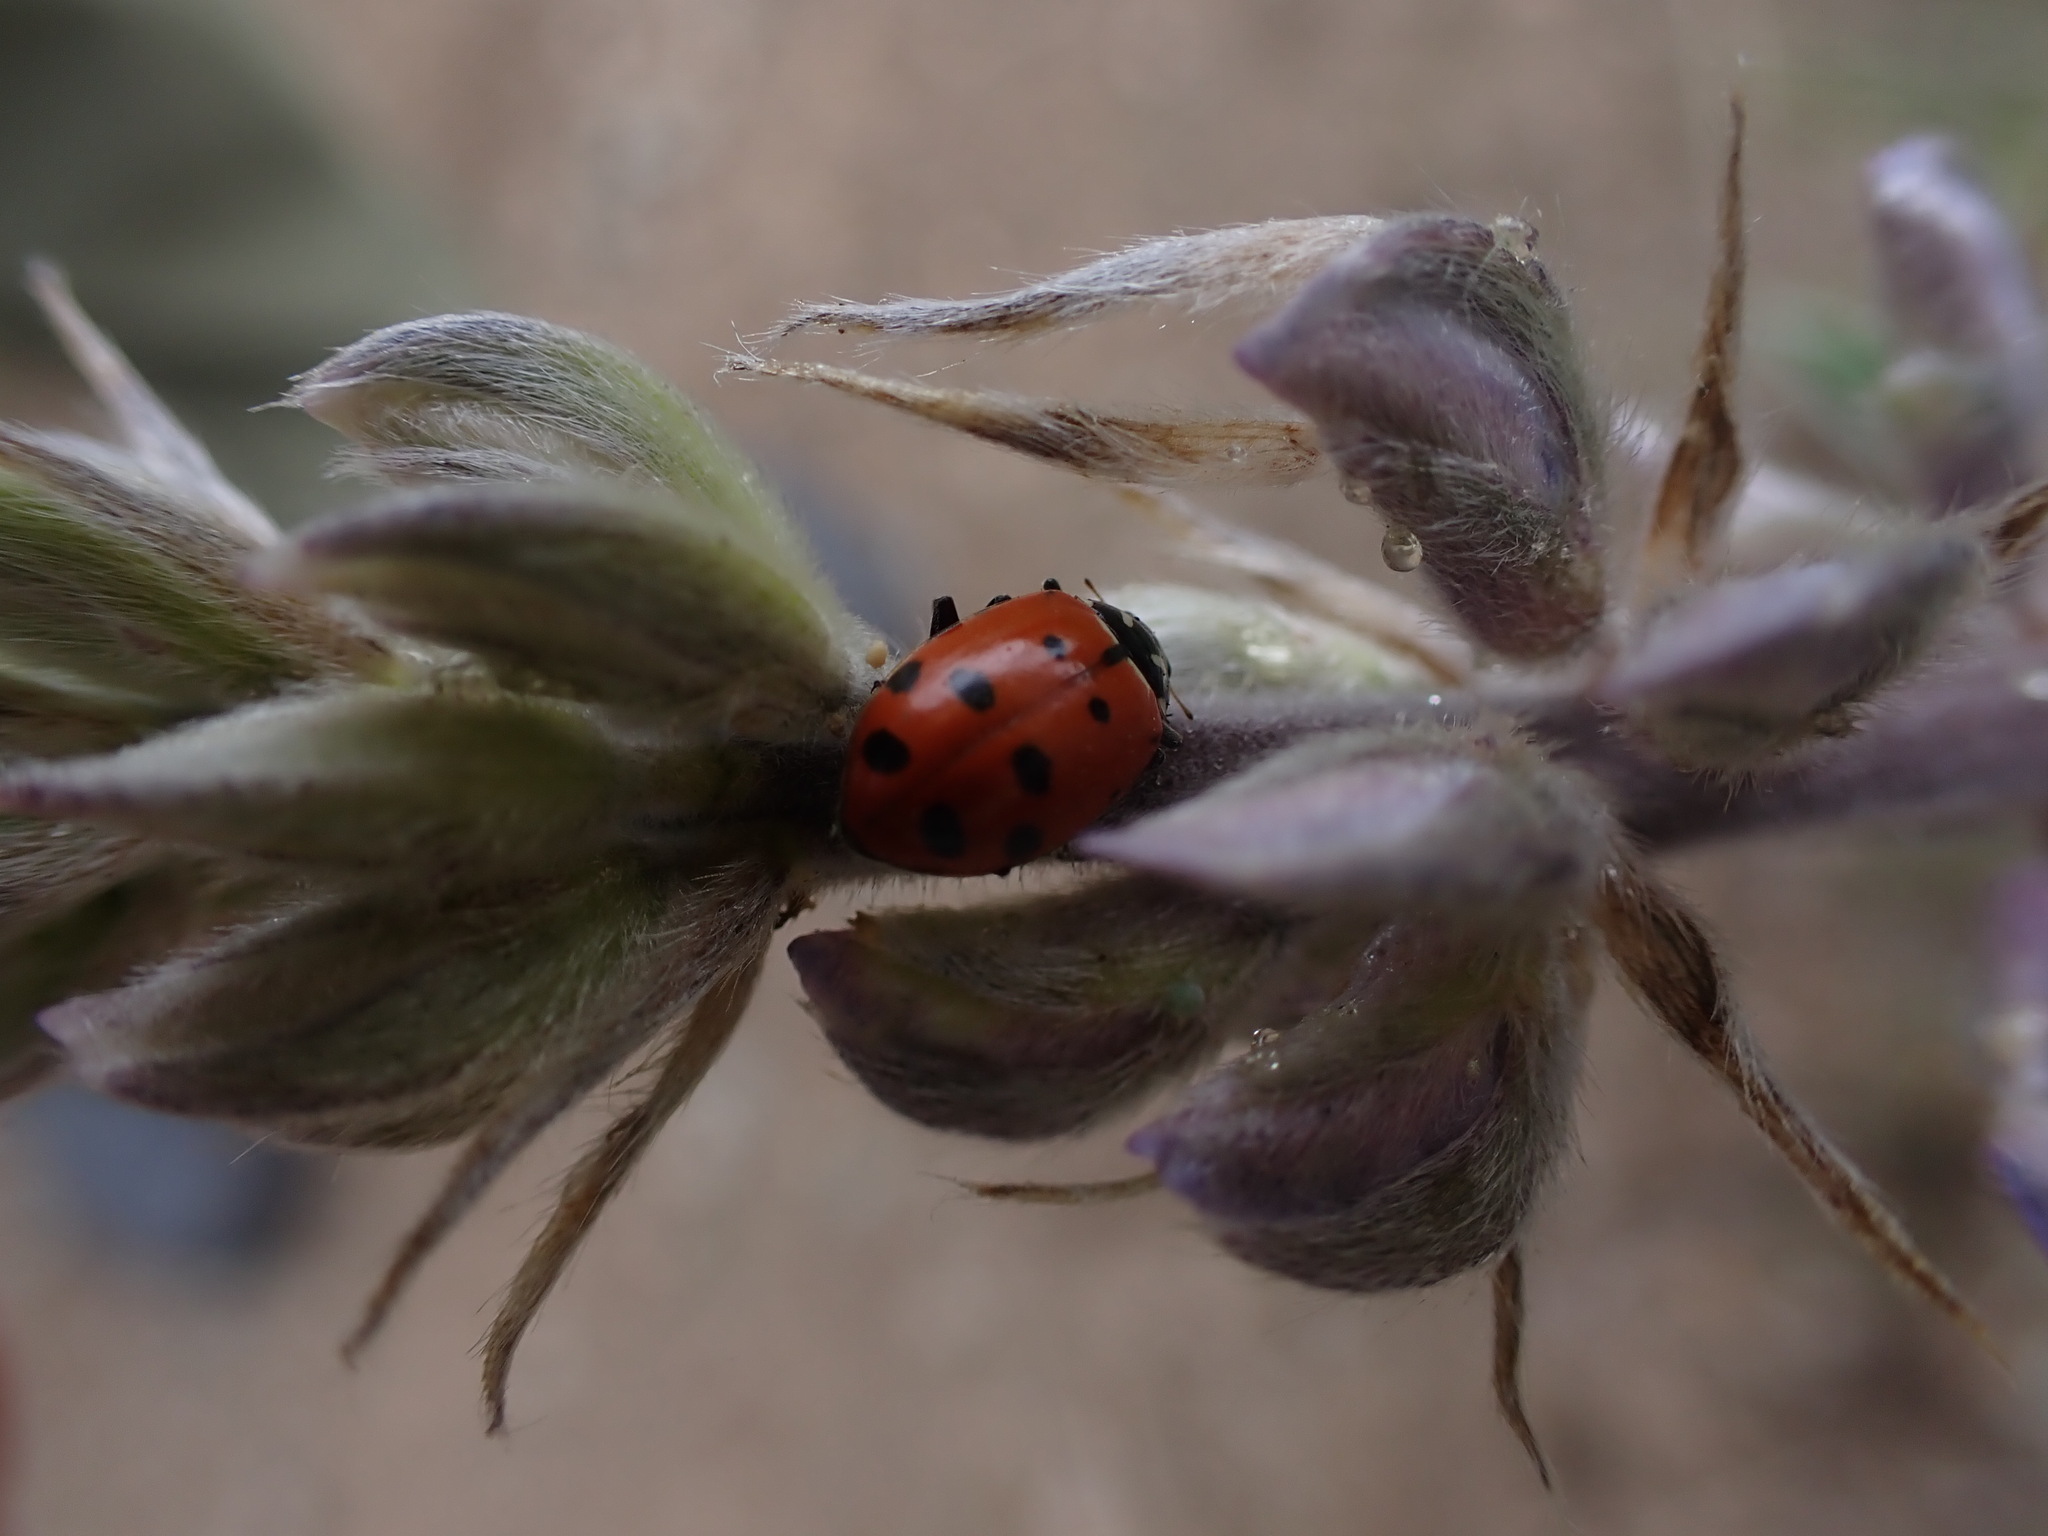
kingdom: Animalia
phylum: Arthropoda
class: Insecta
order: Coleoptera
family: Coccinellidae
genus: Hippodamia
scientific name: Hippodamia convergens
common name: Convergent lady beetle
